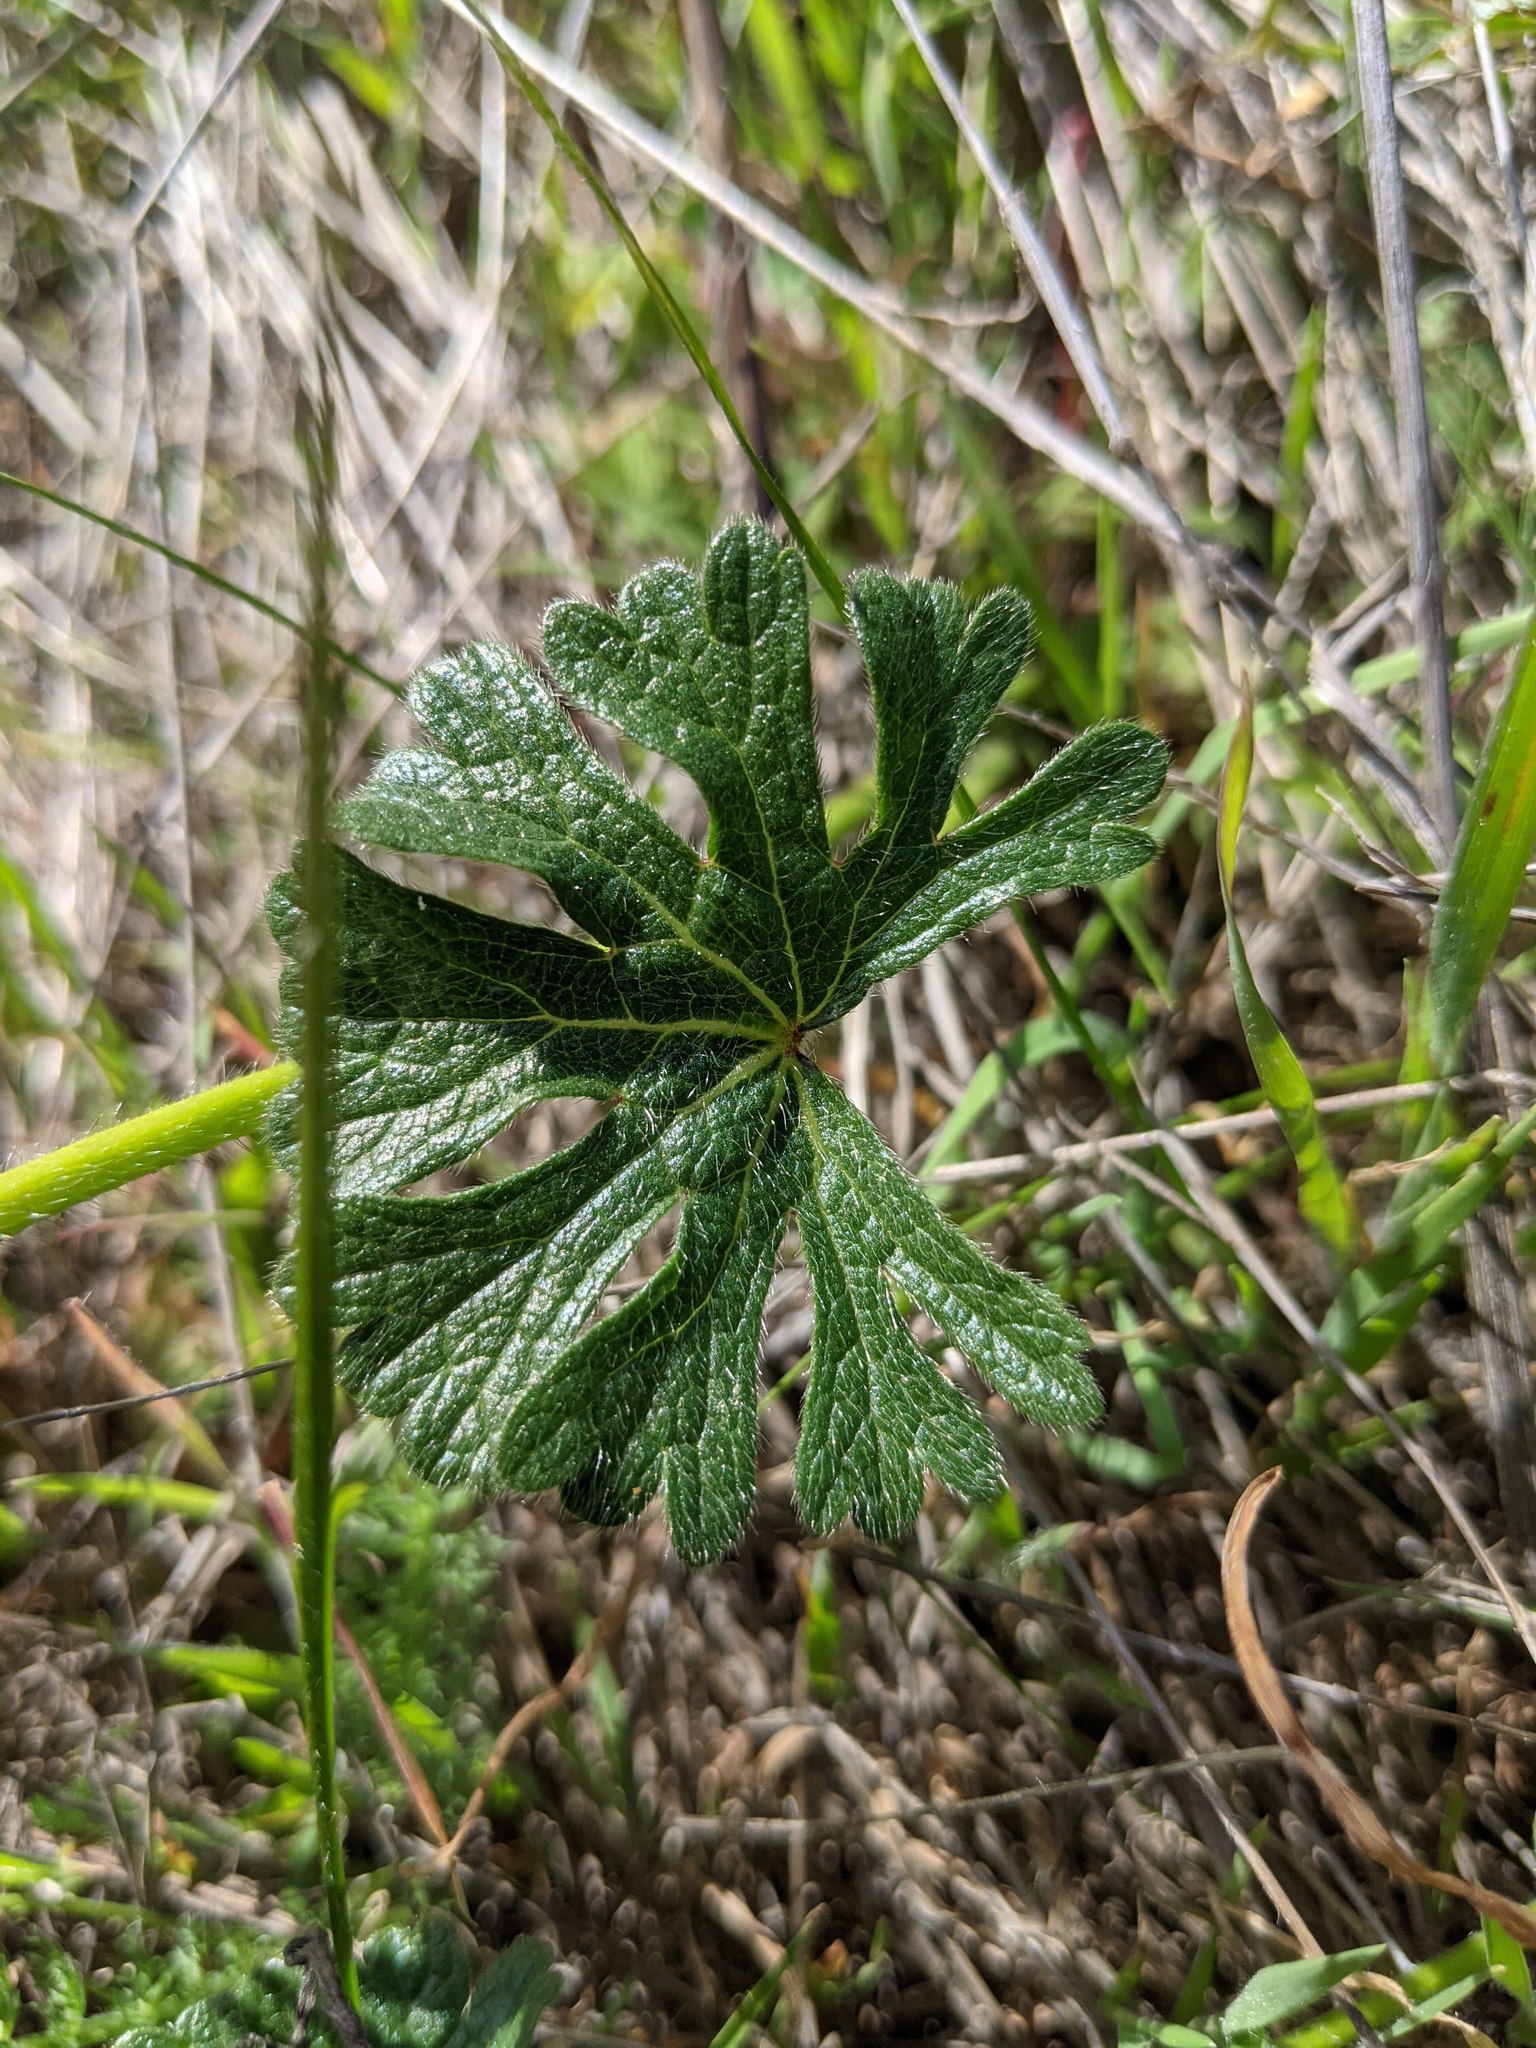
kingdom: Plantae
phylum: Tracheophyta
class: Magnoliopsida
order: Malvales
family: Malvaceae
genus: Sidalcea
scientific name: Sidalcea malviflora
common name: Greek mallow
